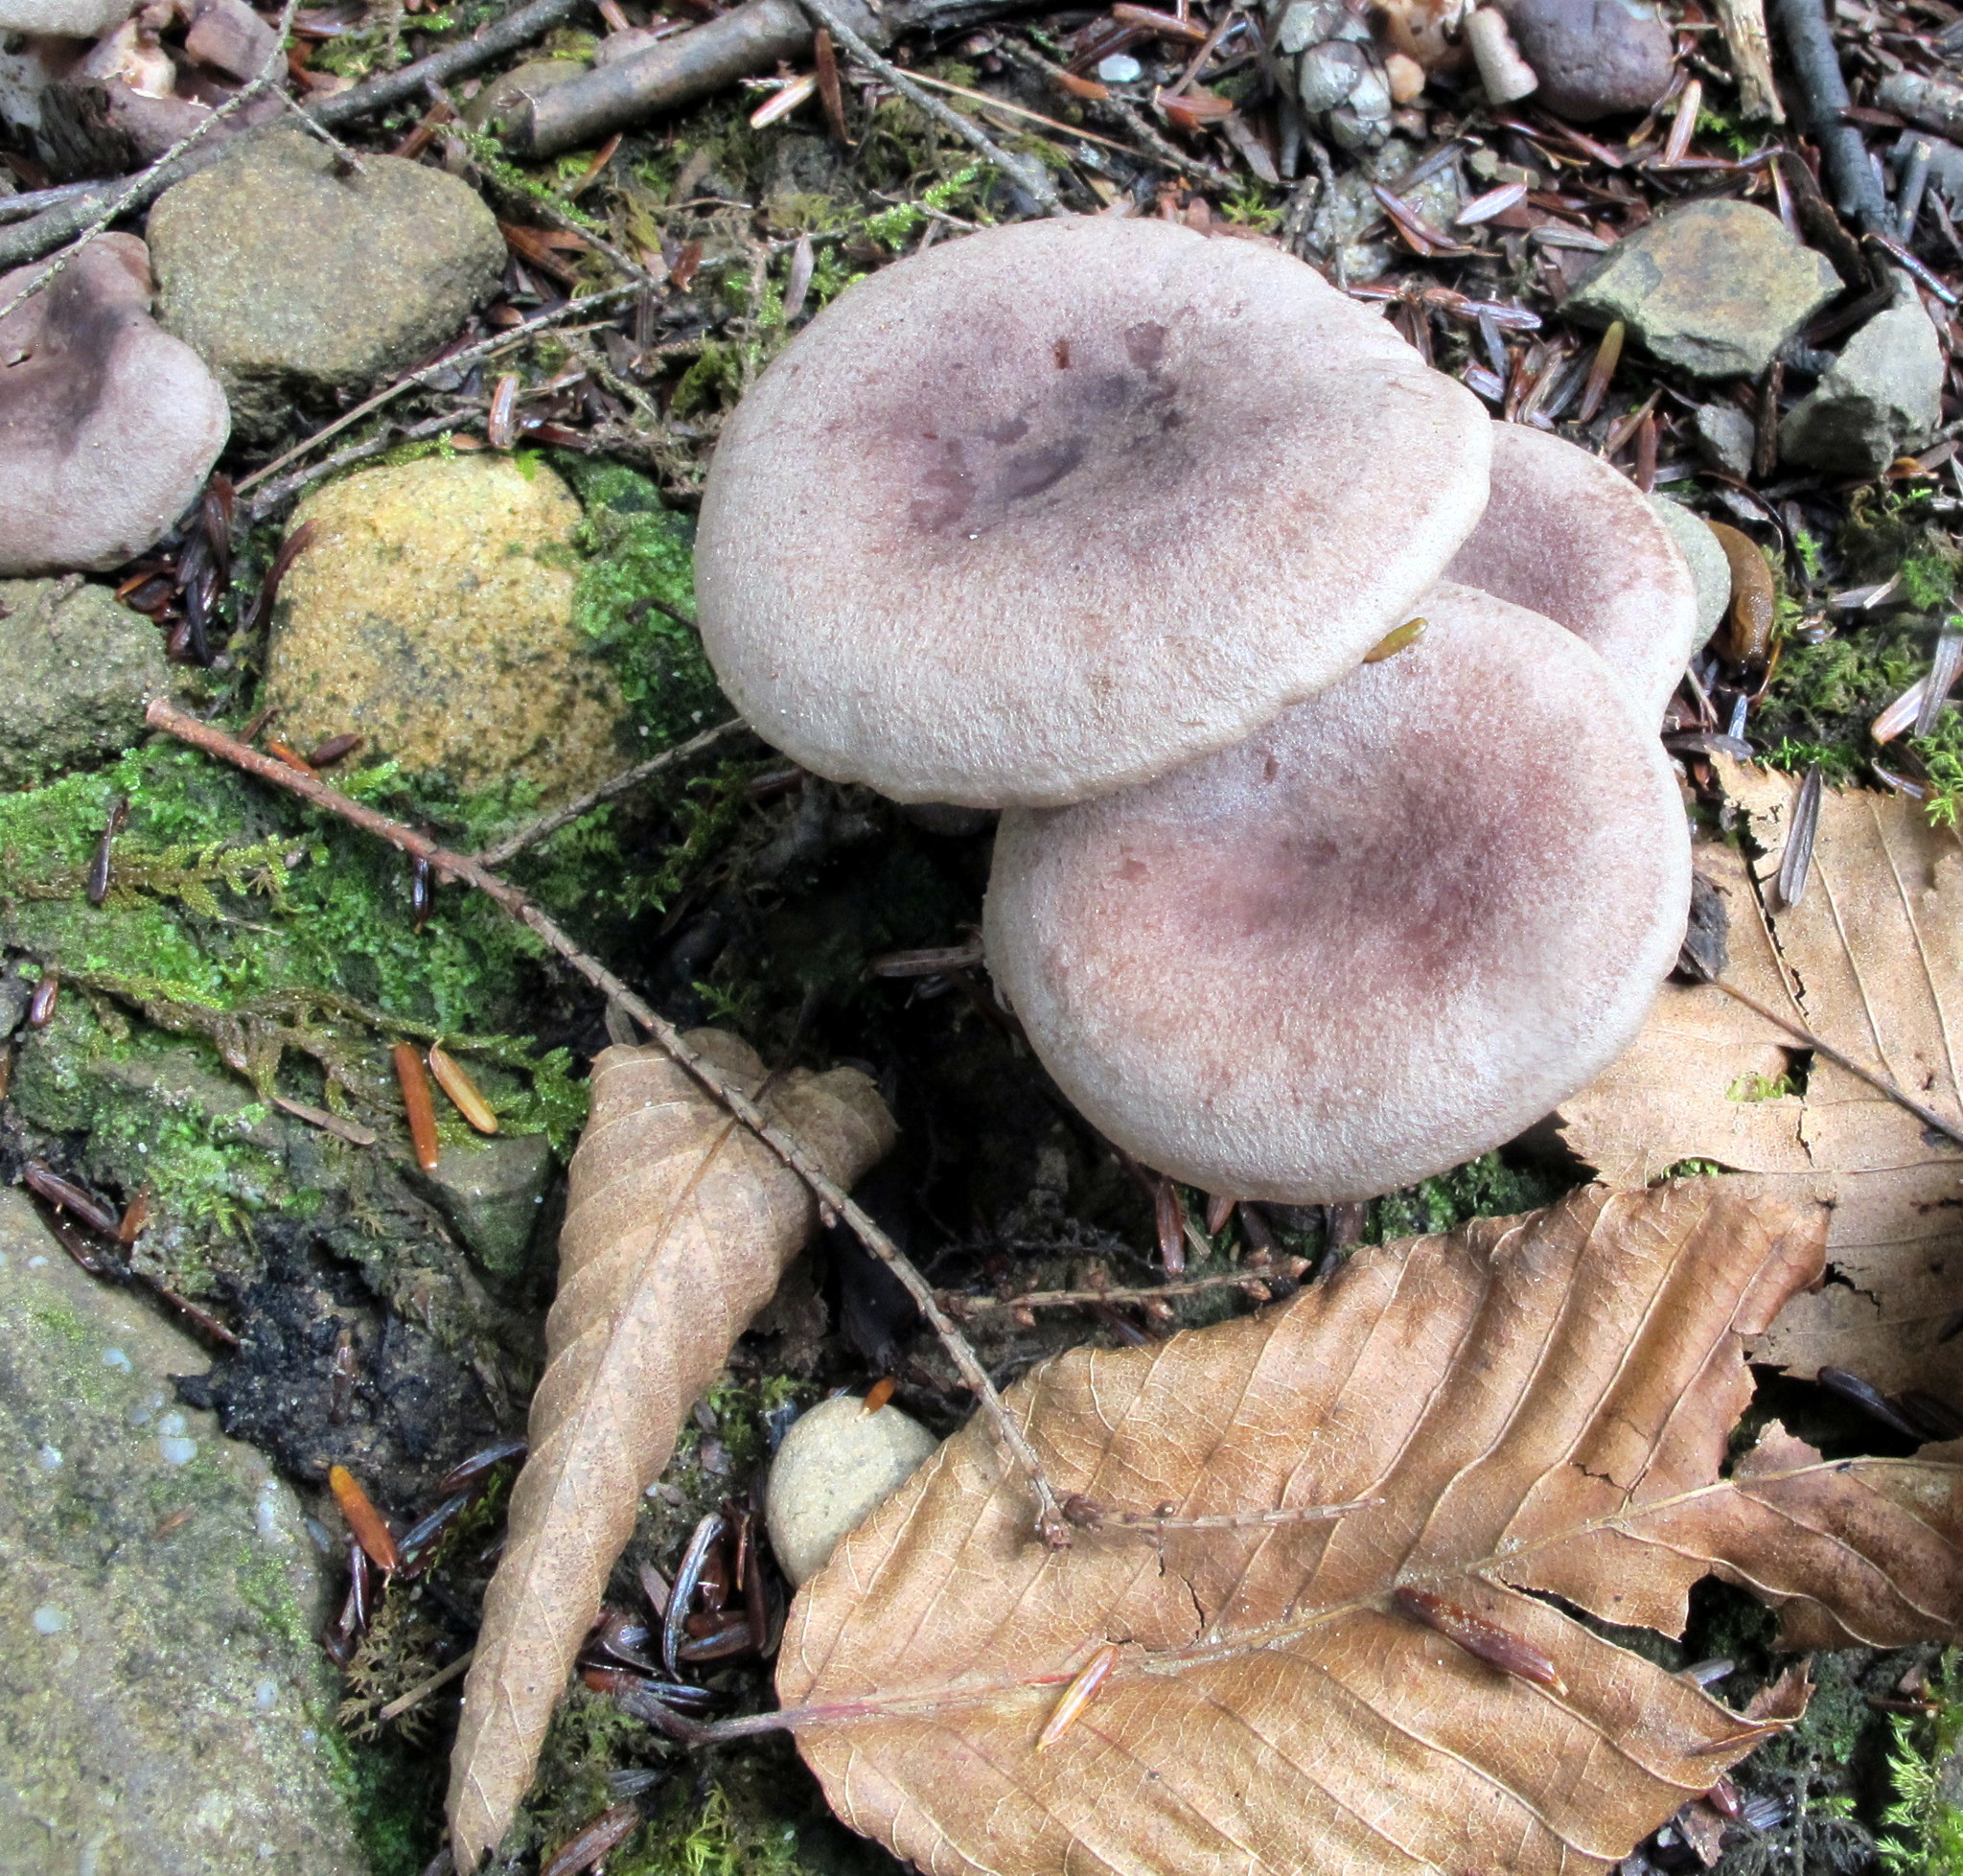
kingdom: Fungi
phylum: Basidiomycota
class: Agaricomycetes
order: Russulales
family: Russulaceae
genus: Lactarius
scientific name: Lactarius hibbardiae
